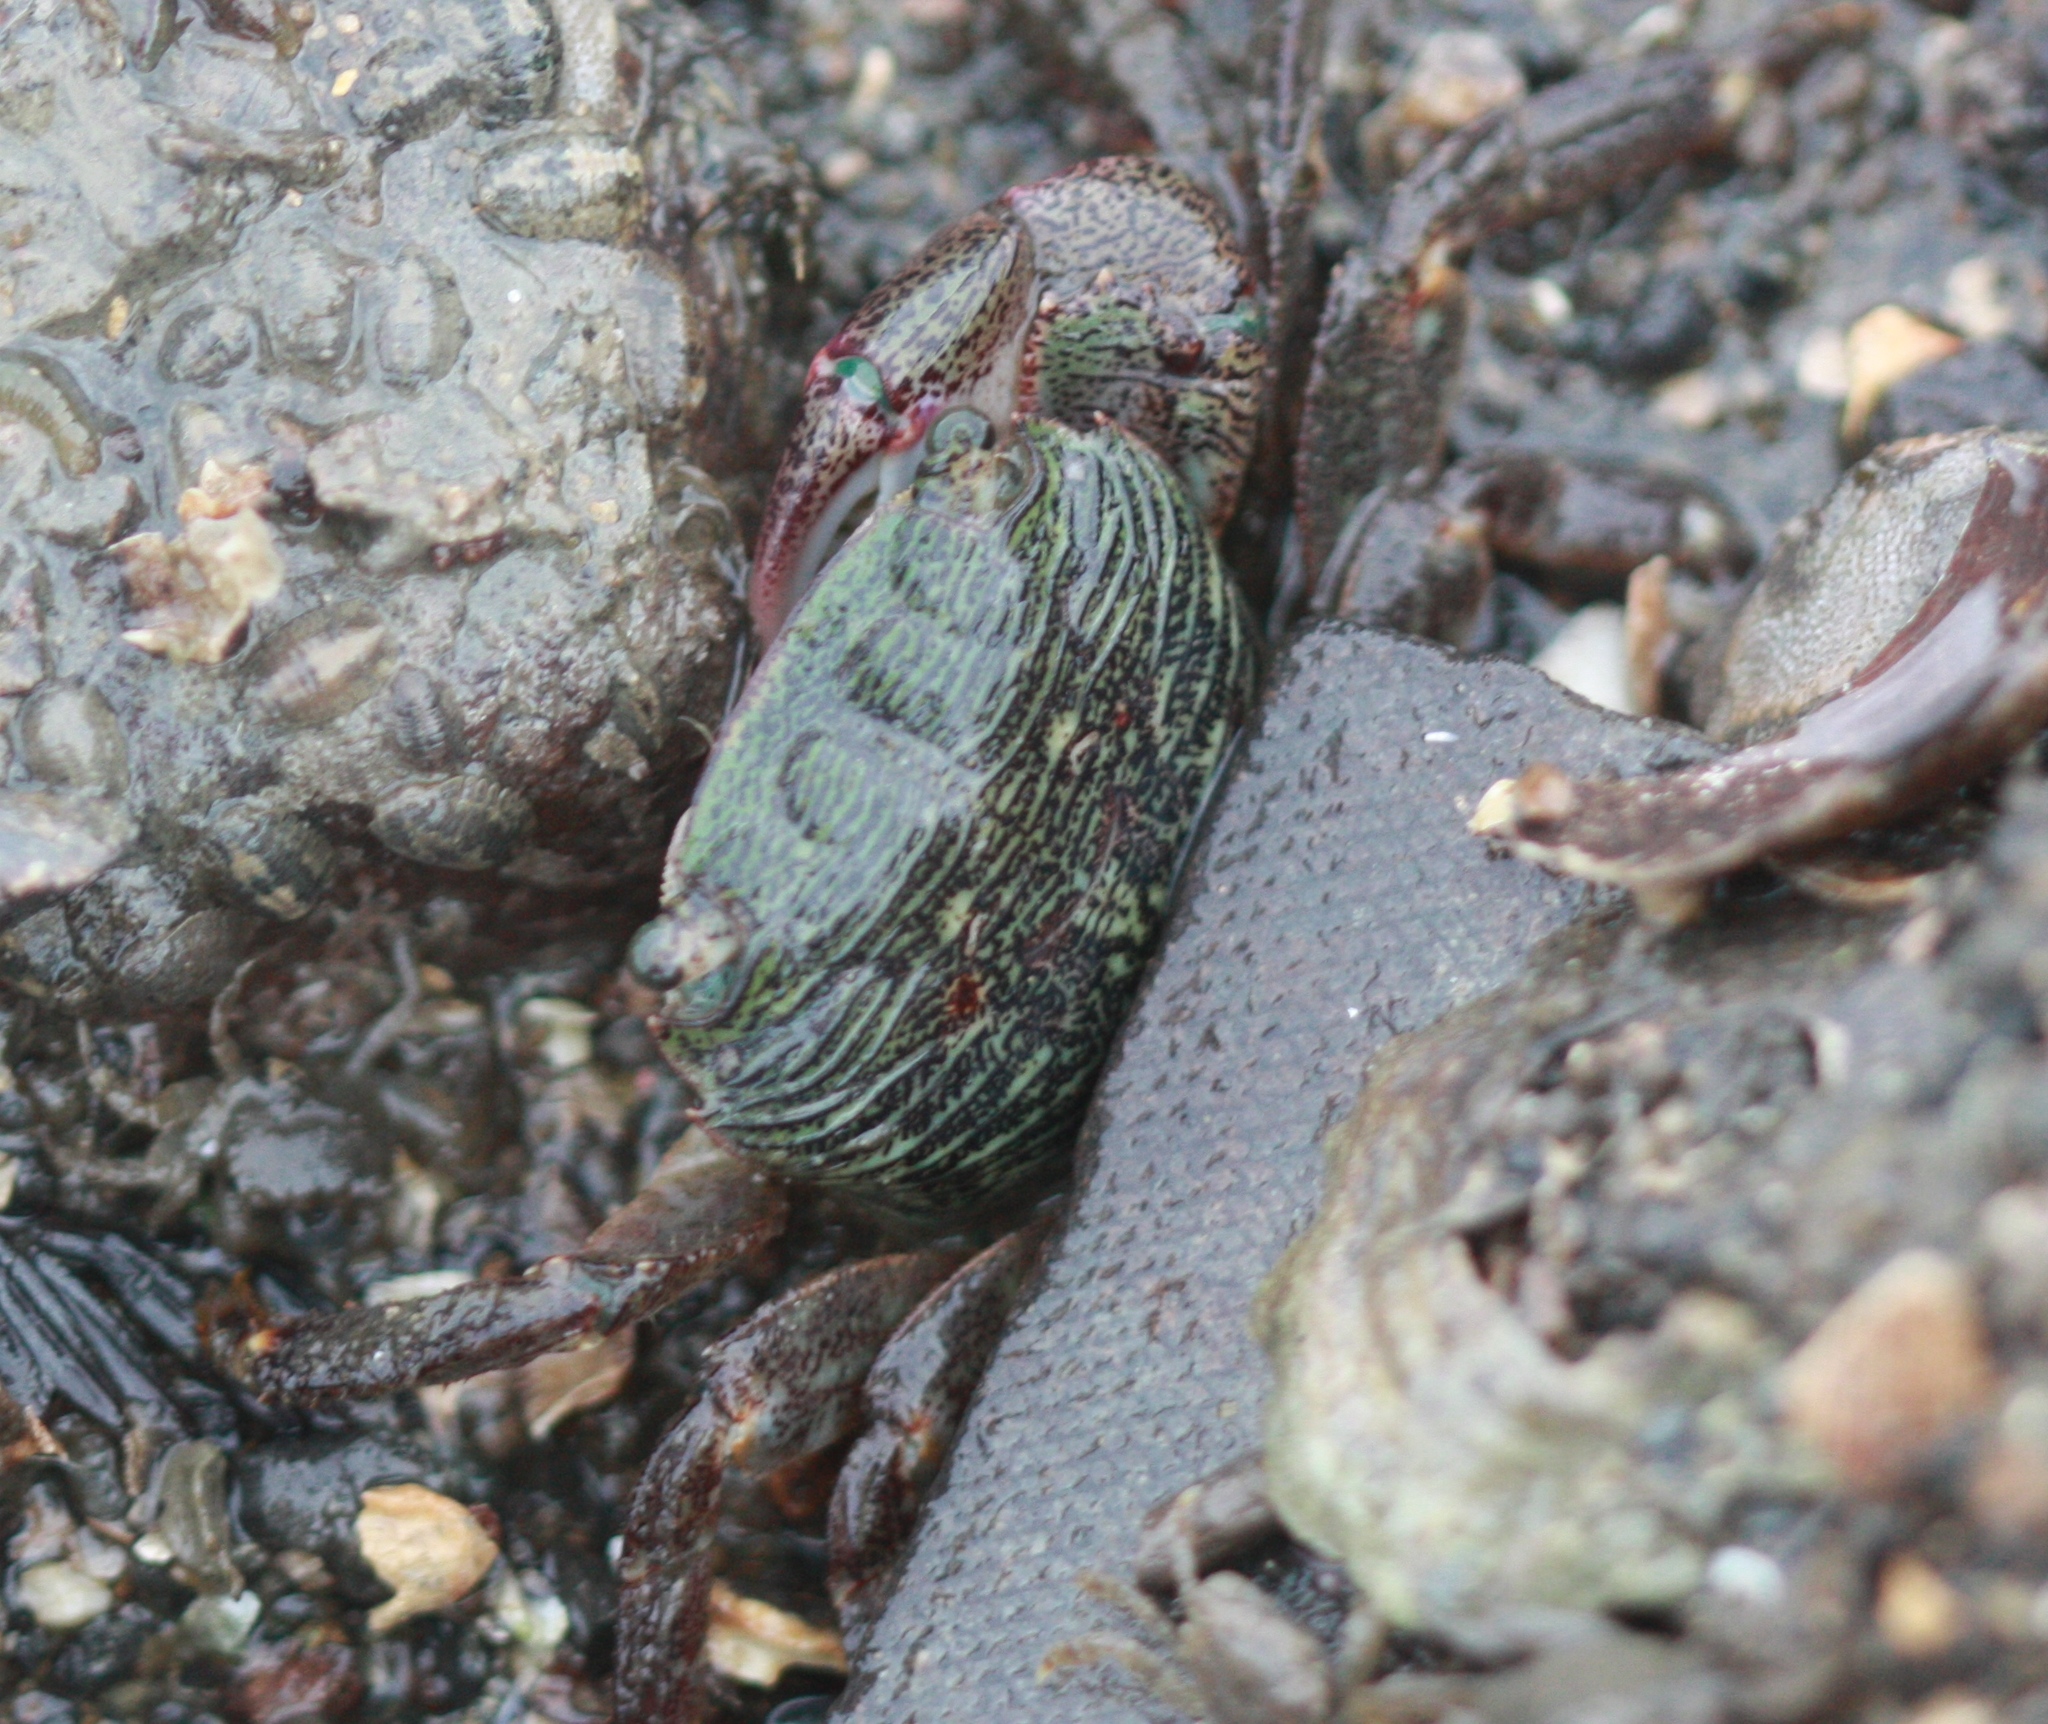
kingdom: Animalia
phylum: Arthropoda
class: Malacostraca
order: Decapoda
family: Grapsidae
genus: Pachygrapsus
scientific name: Pachygrapsus crassipes
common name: Striped shore crab
